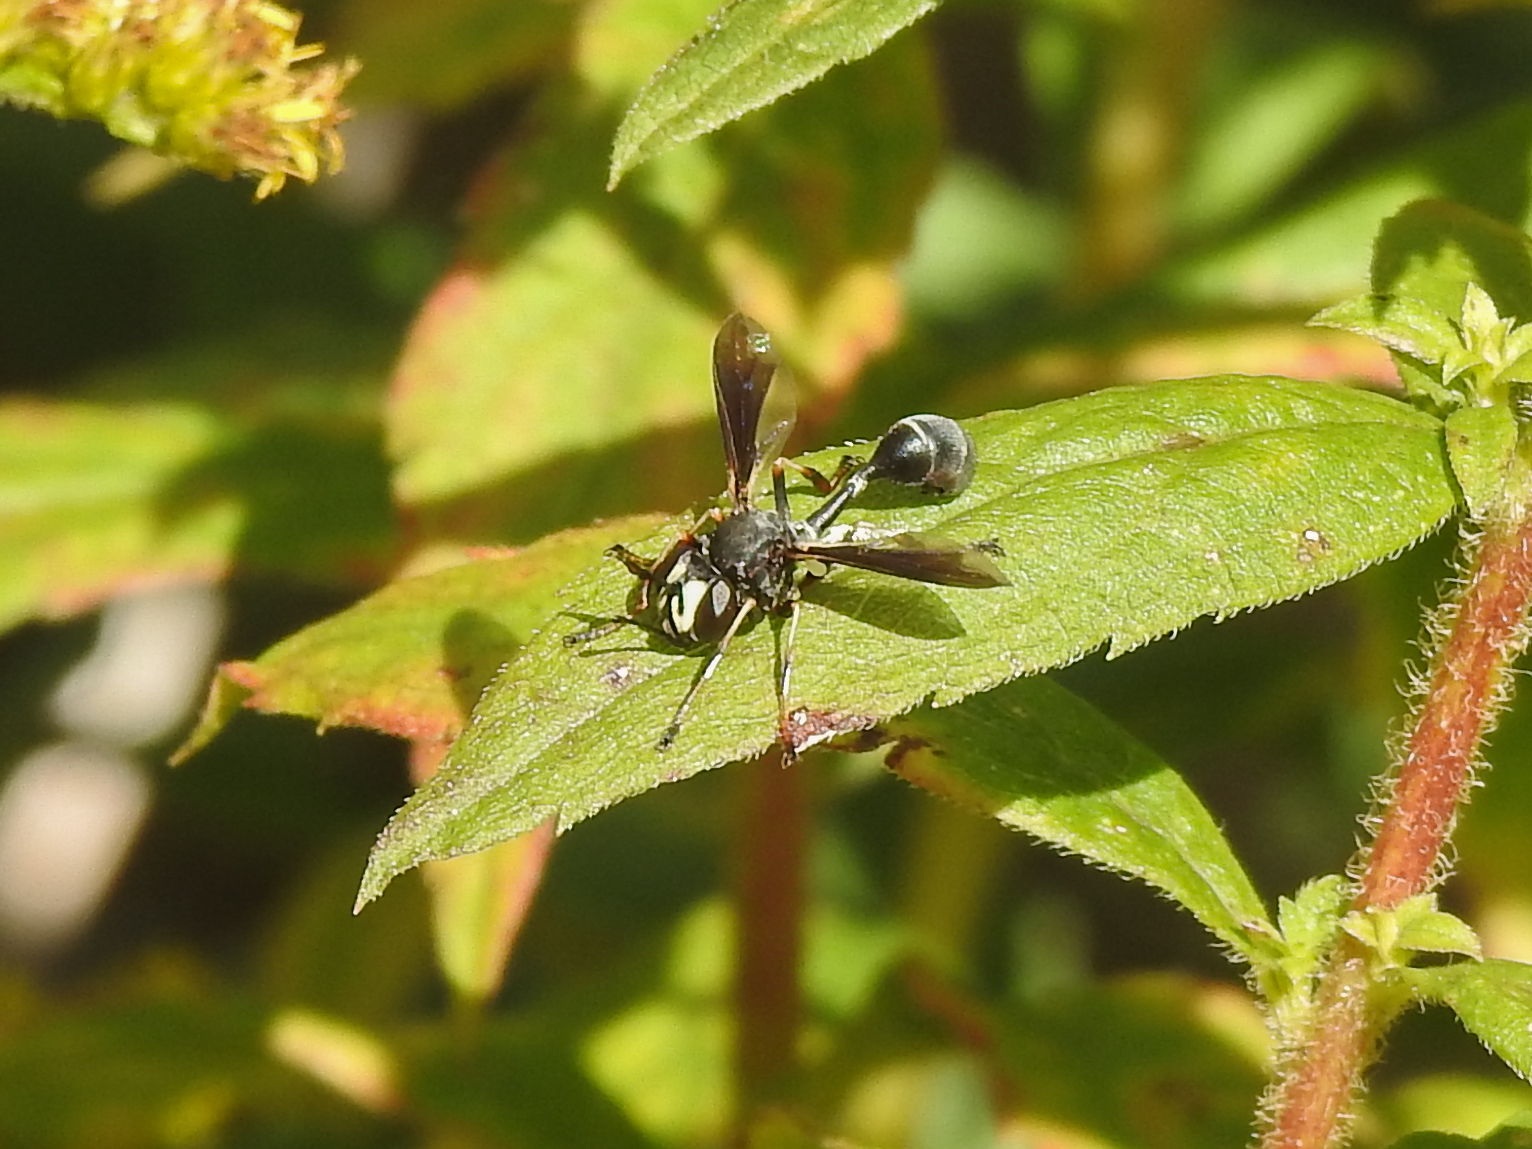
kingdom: Animalia
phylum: Arthropoda
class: Insecta
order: Diptera
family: Conopidae
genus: Physocephala
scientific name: Physocephala tibialis
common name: Common eastern physocephala
